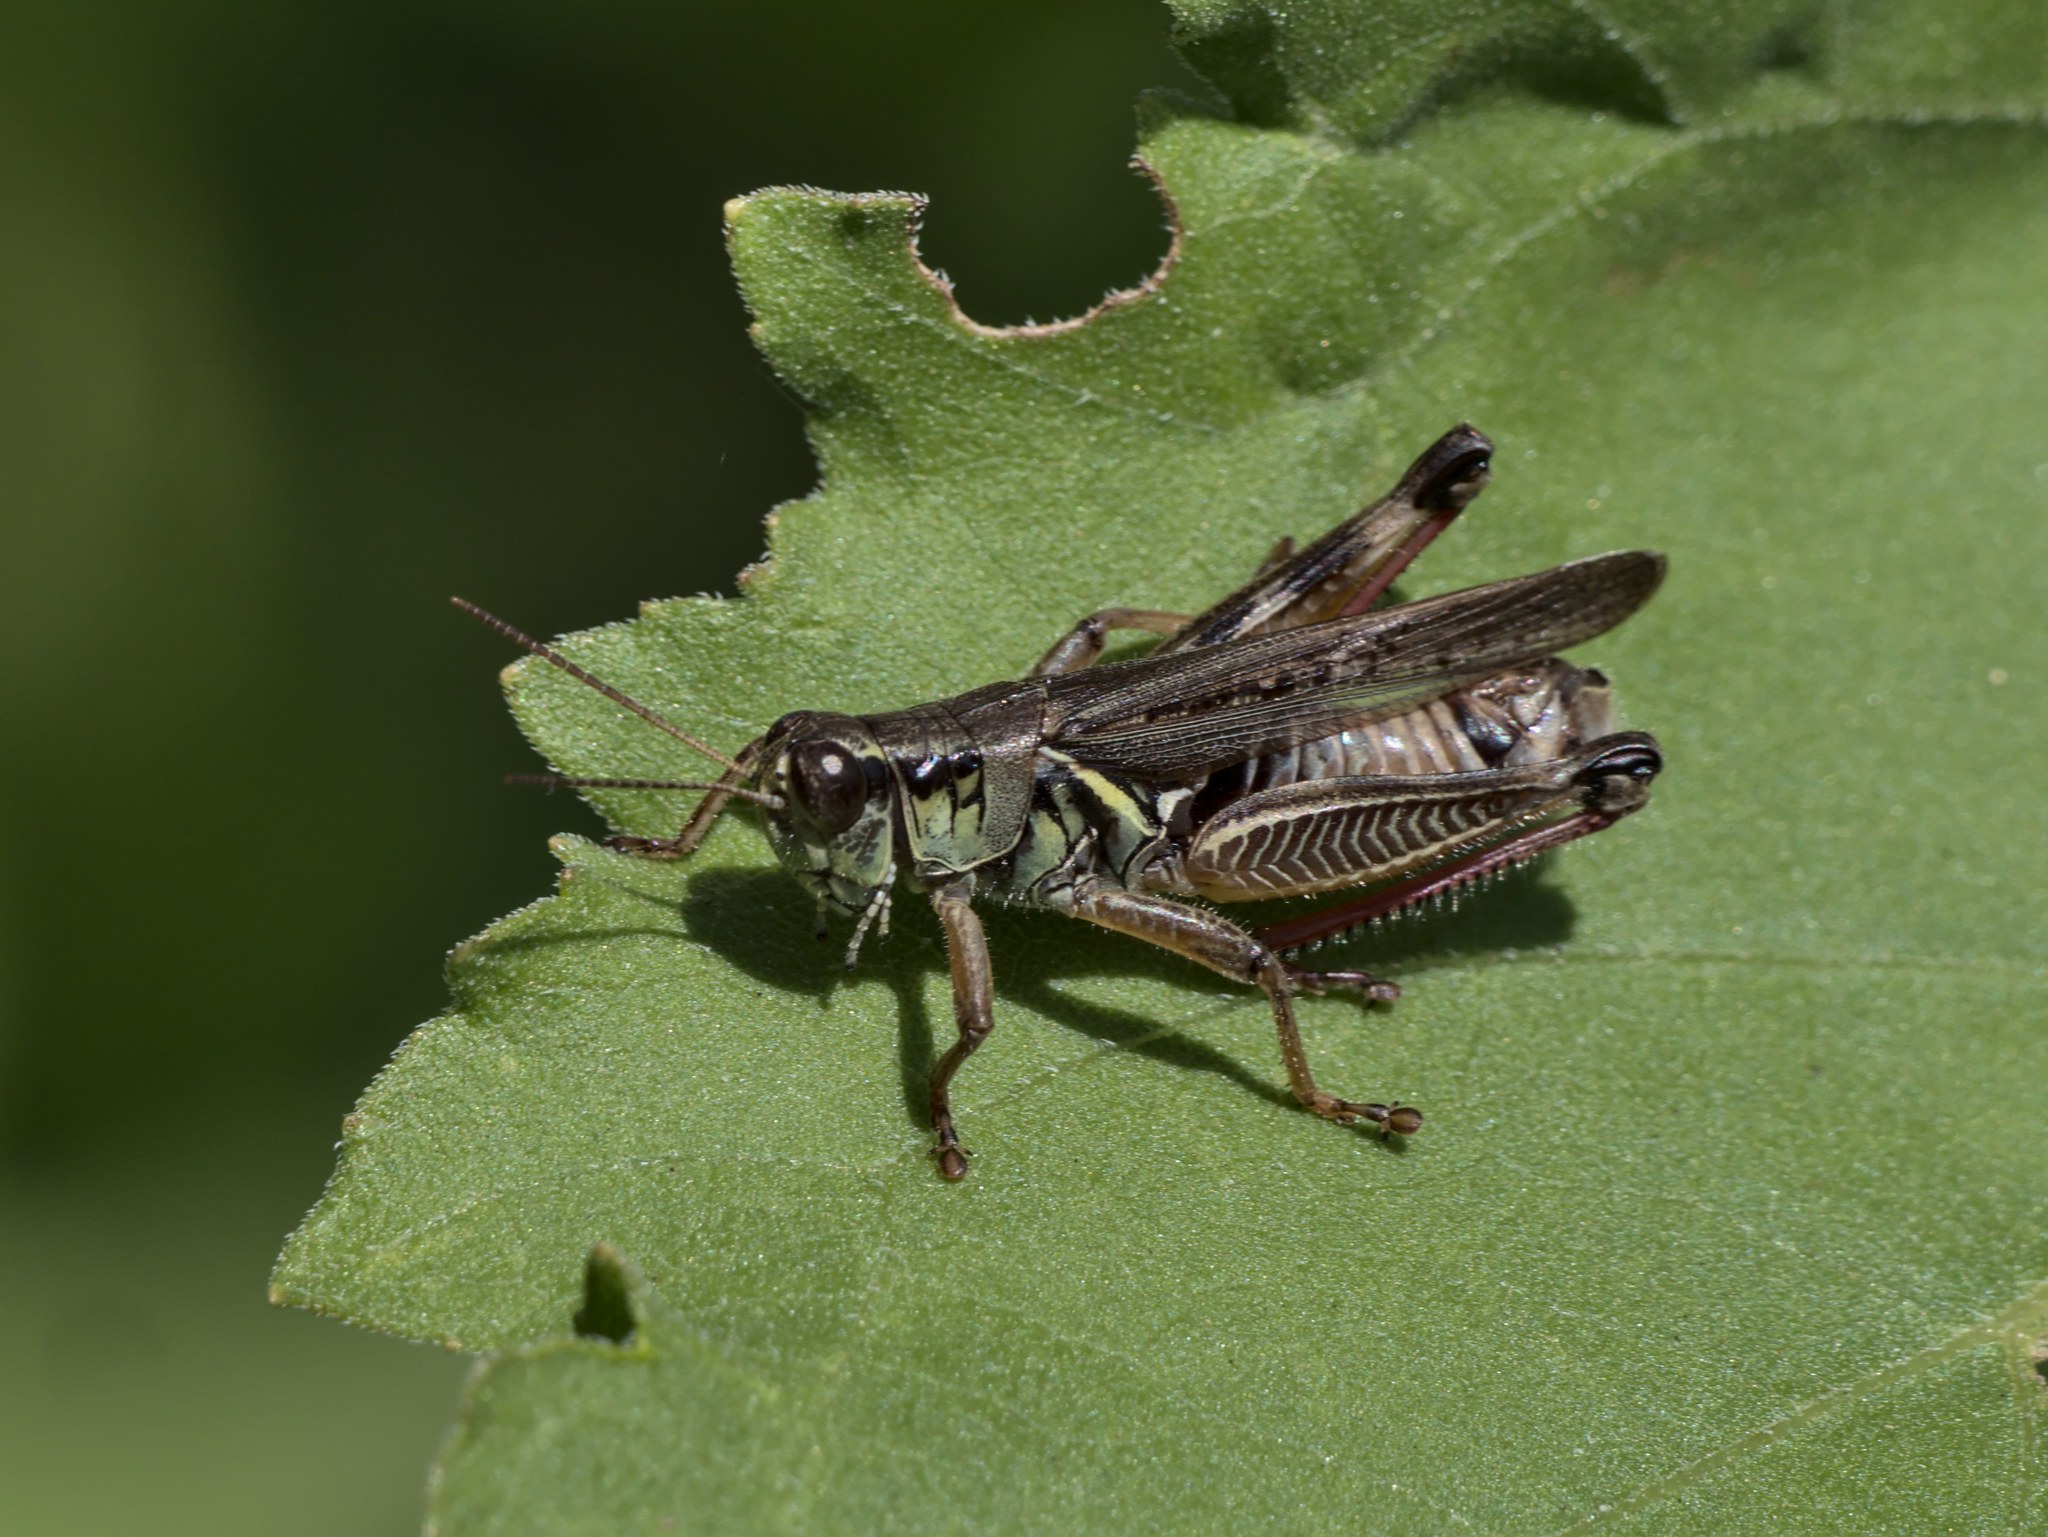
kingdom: Animalia
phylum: Arthropoda
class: Insecta
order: Orthoptera
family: Acrididae
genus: Melanoplus
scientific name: Melanoplus femurrubrum
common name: Red-legged grasshopper
